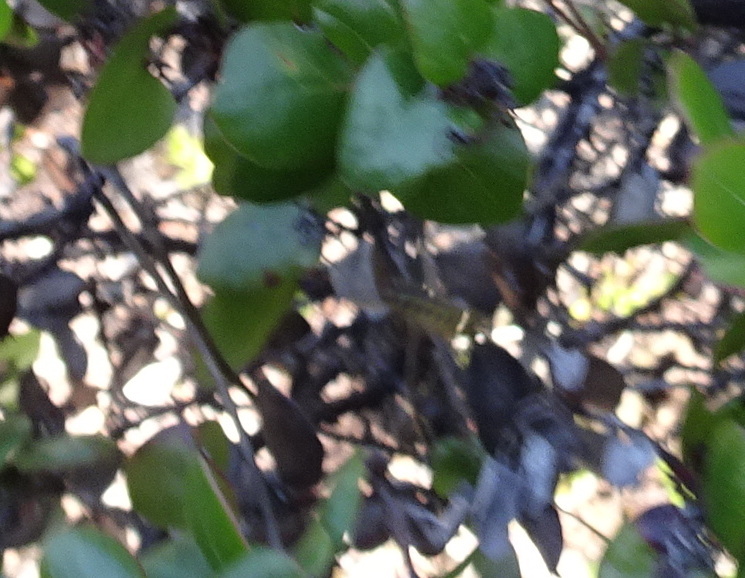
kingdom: Animalia
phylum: Arthropoda
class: Insecta
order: Hymenoptera
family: Vespidae
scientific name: Vespidae
